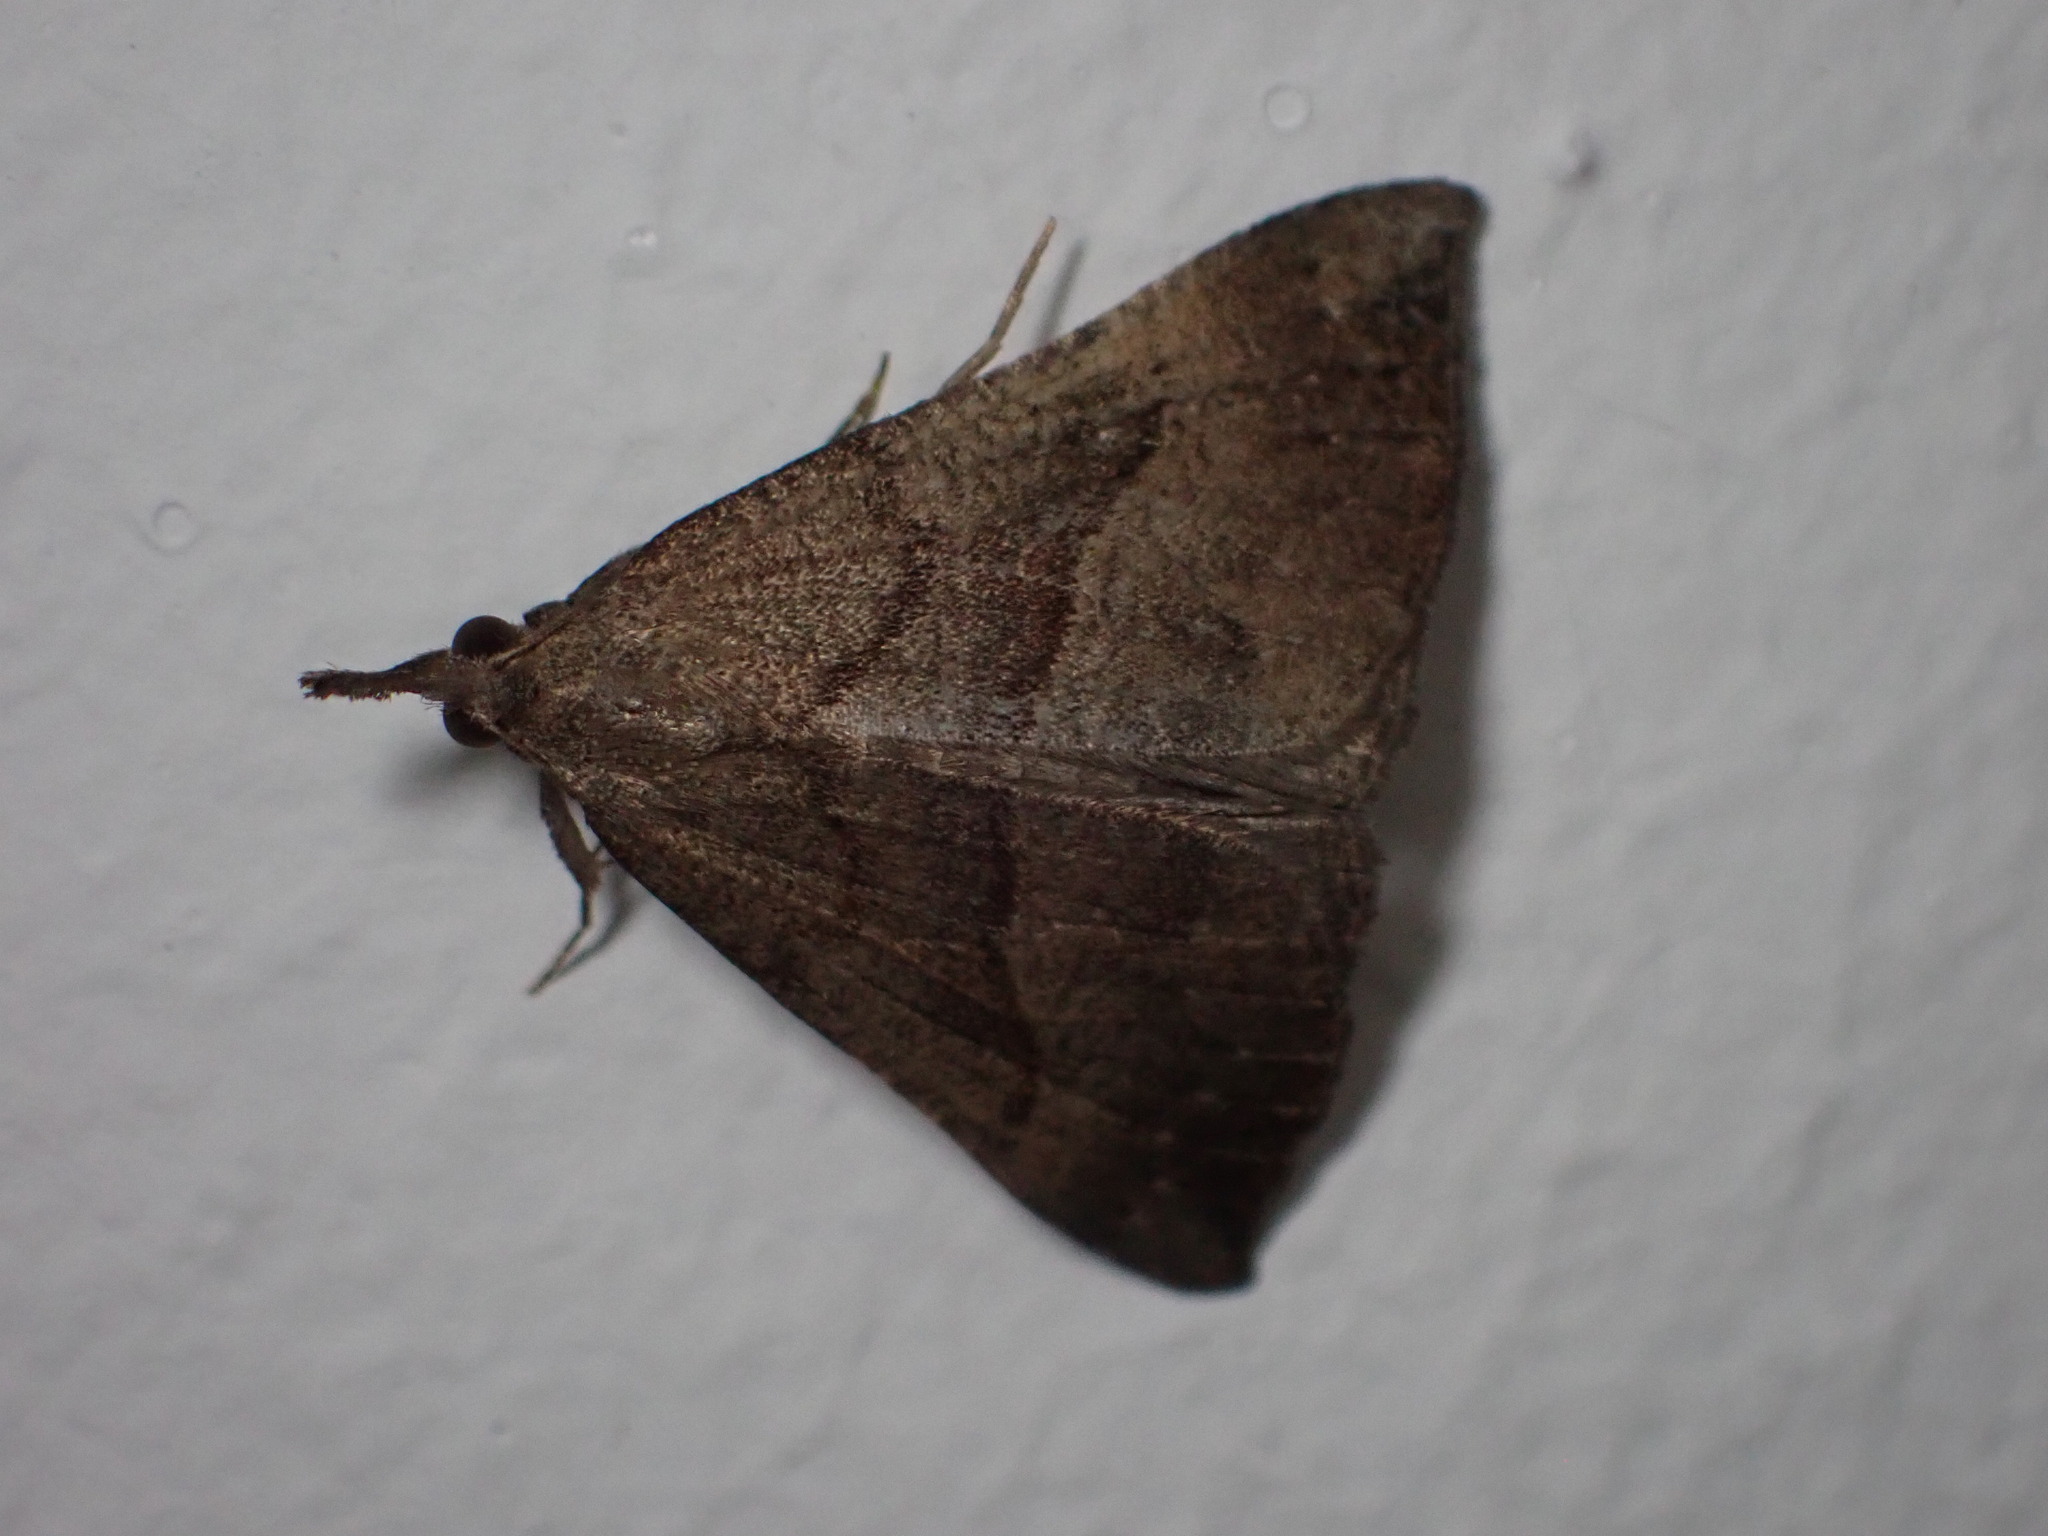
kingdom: Animalia
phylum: Arthropoda
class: Insecta
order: Lepidoptera
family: Erebidae
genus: Hypena
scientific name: Hypena proboscidalis
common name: Snout
